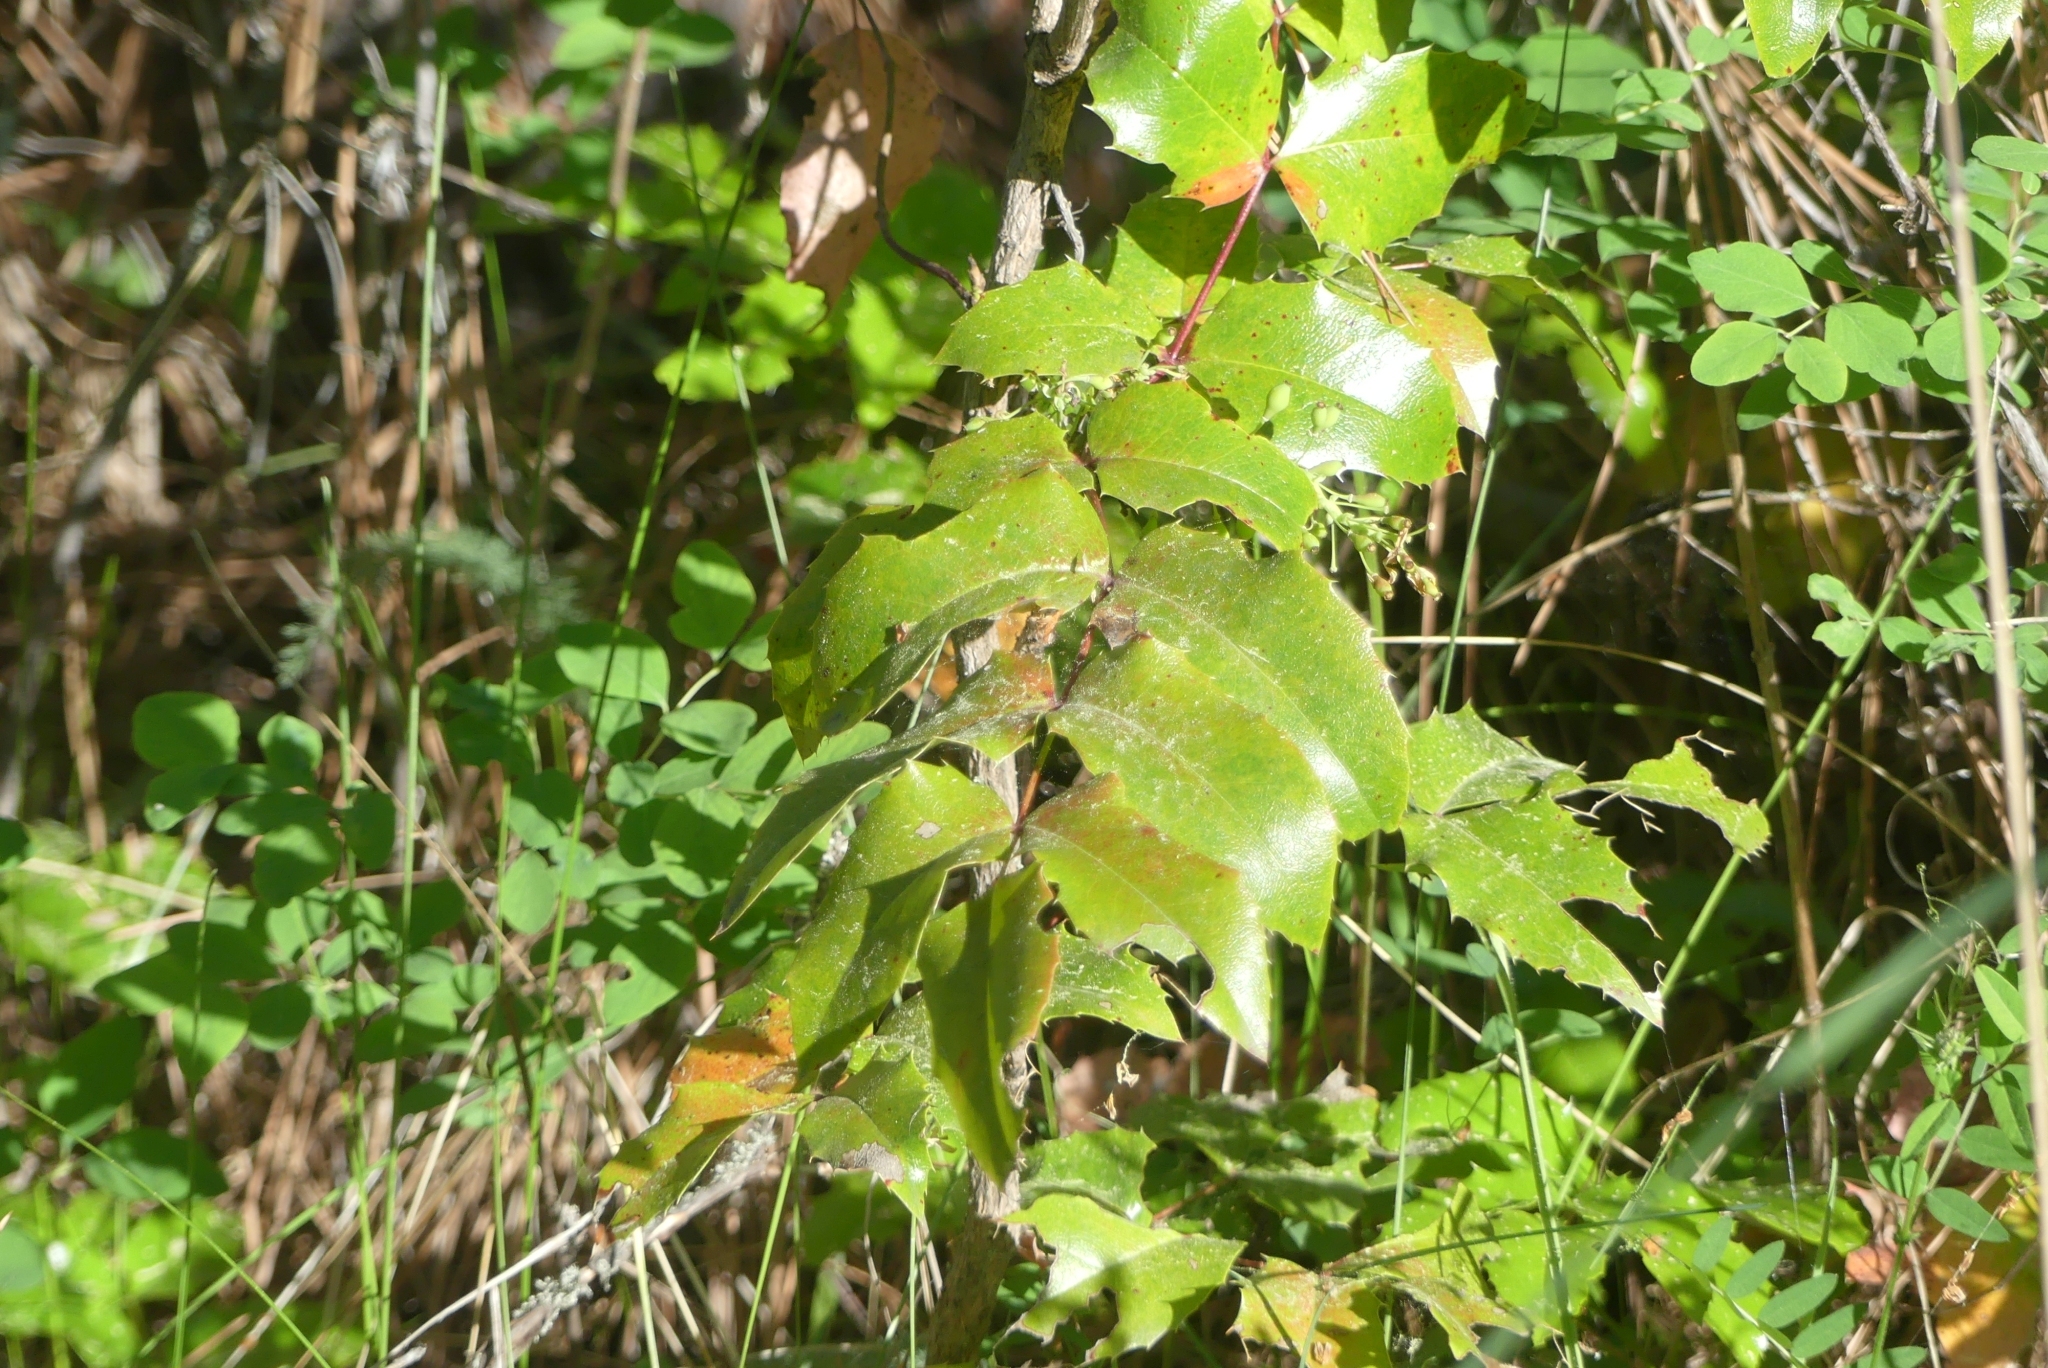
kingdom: Plantae
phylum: Tracheophyta
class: Magnoliopsida
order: Ranunculales
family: Berberidaceae
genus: Mahonia
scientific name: Mahonia aquifolium
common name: Oregon-grape
